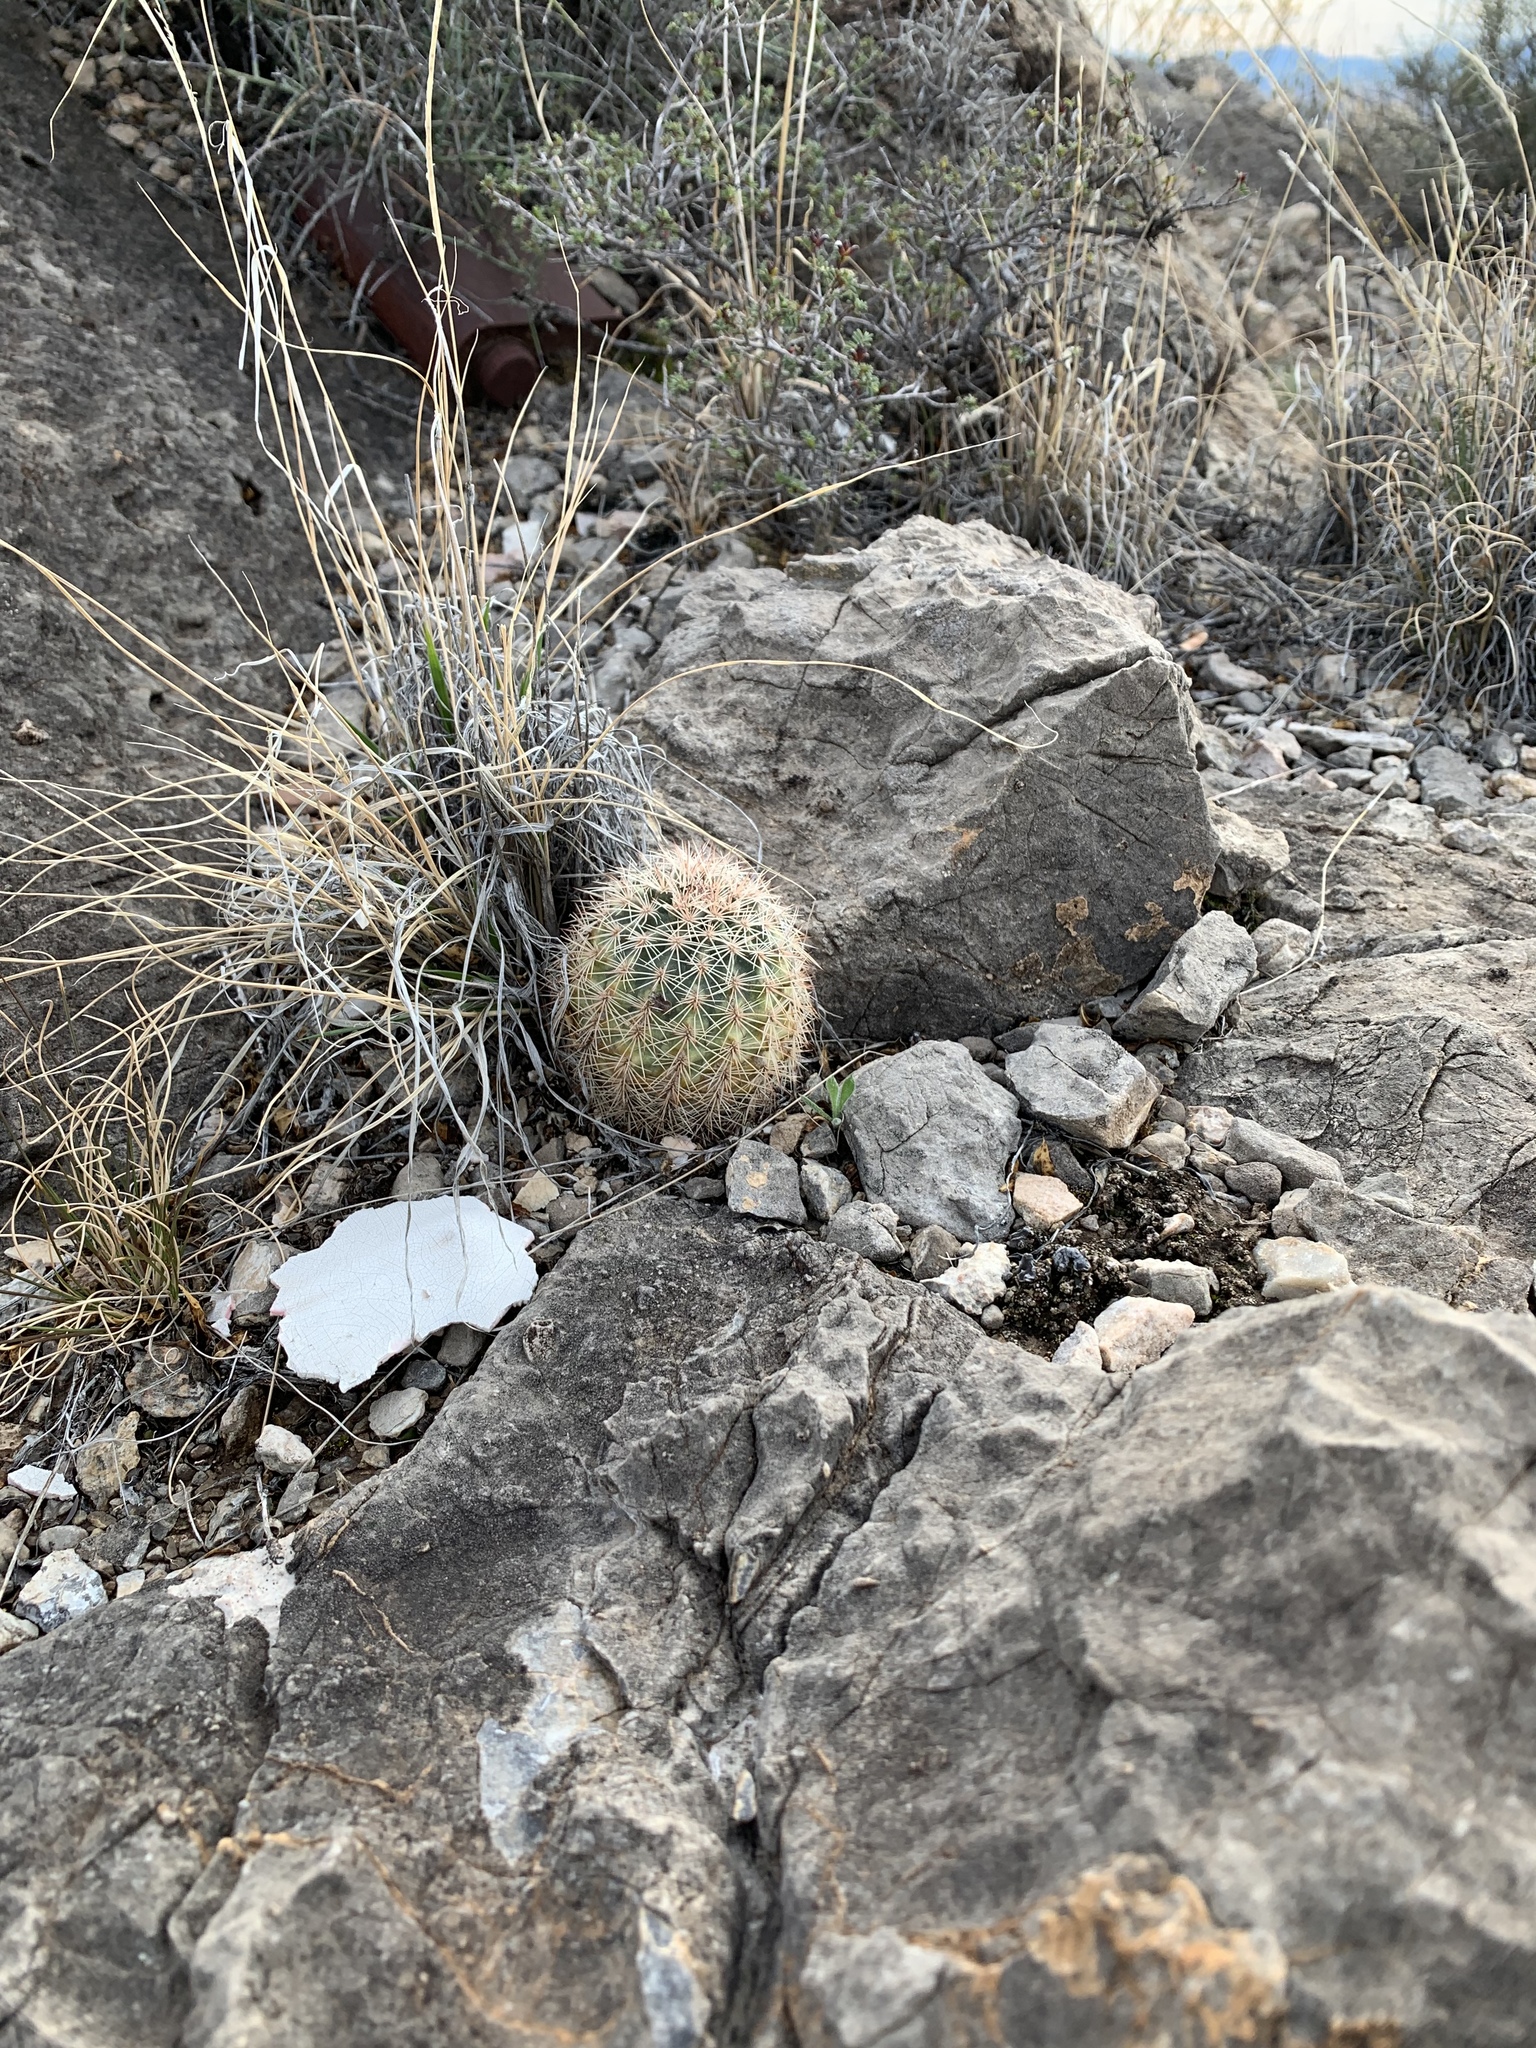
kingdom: Plantae
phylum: Tracheophyta
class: Magnoliopsida
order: Caryophyllales
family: Cactaceae
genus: Echinocereus
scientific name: Echinocereus dasyacanthus
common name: Spiny hedgehog cactus
